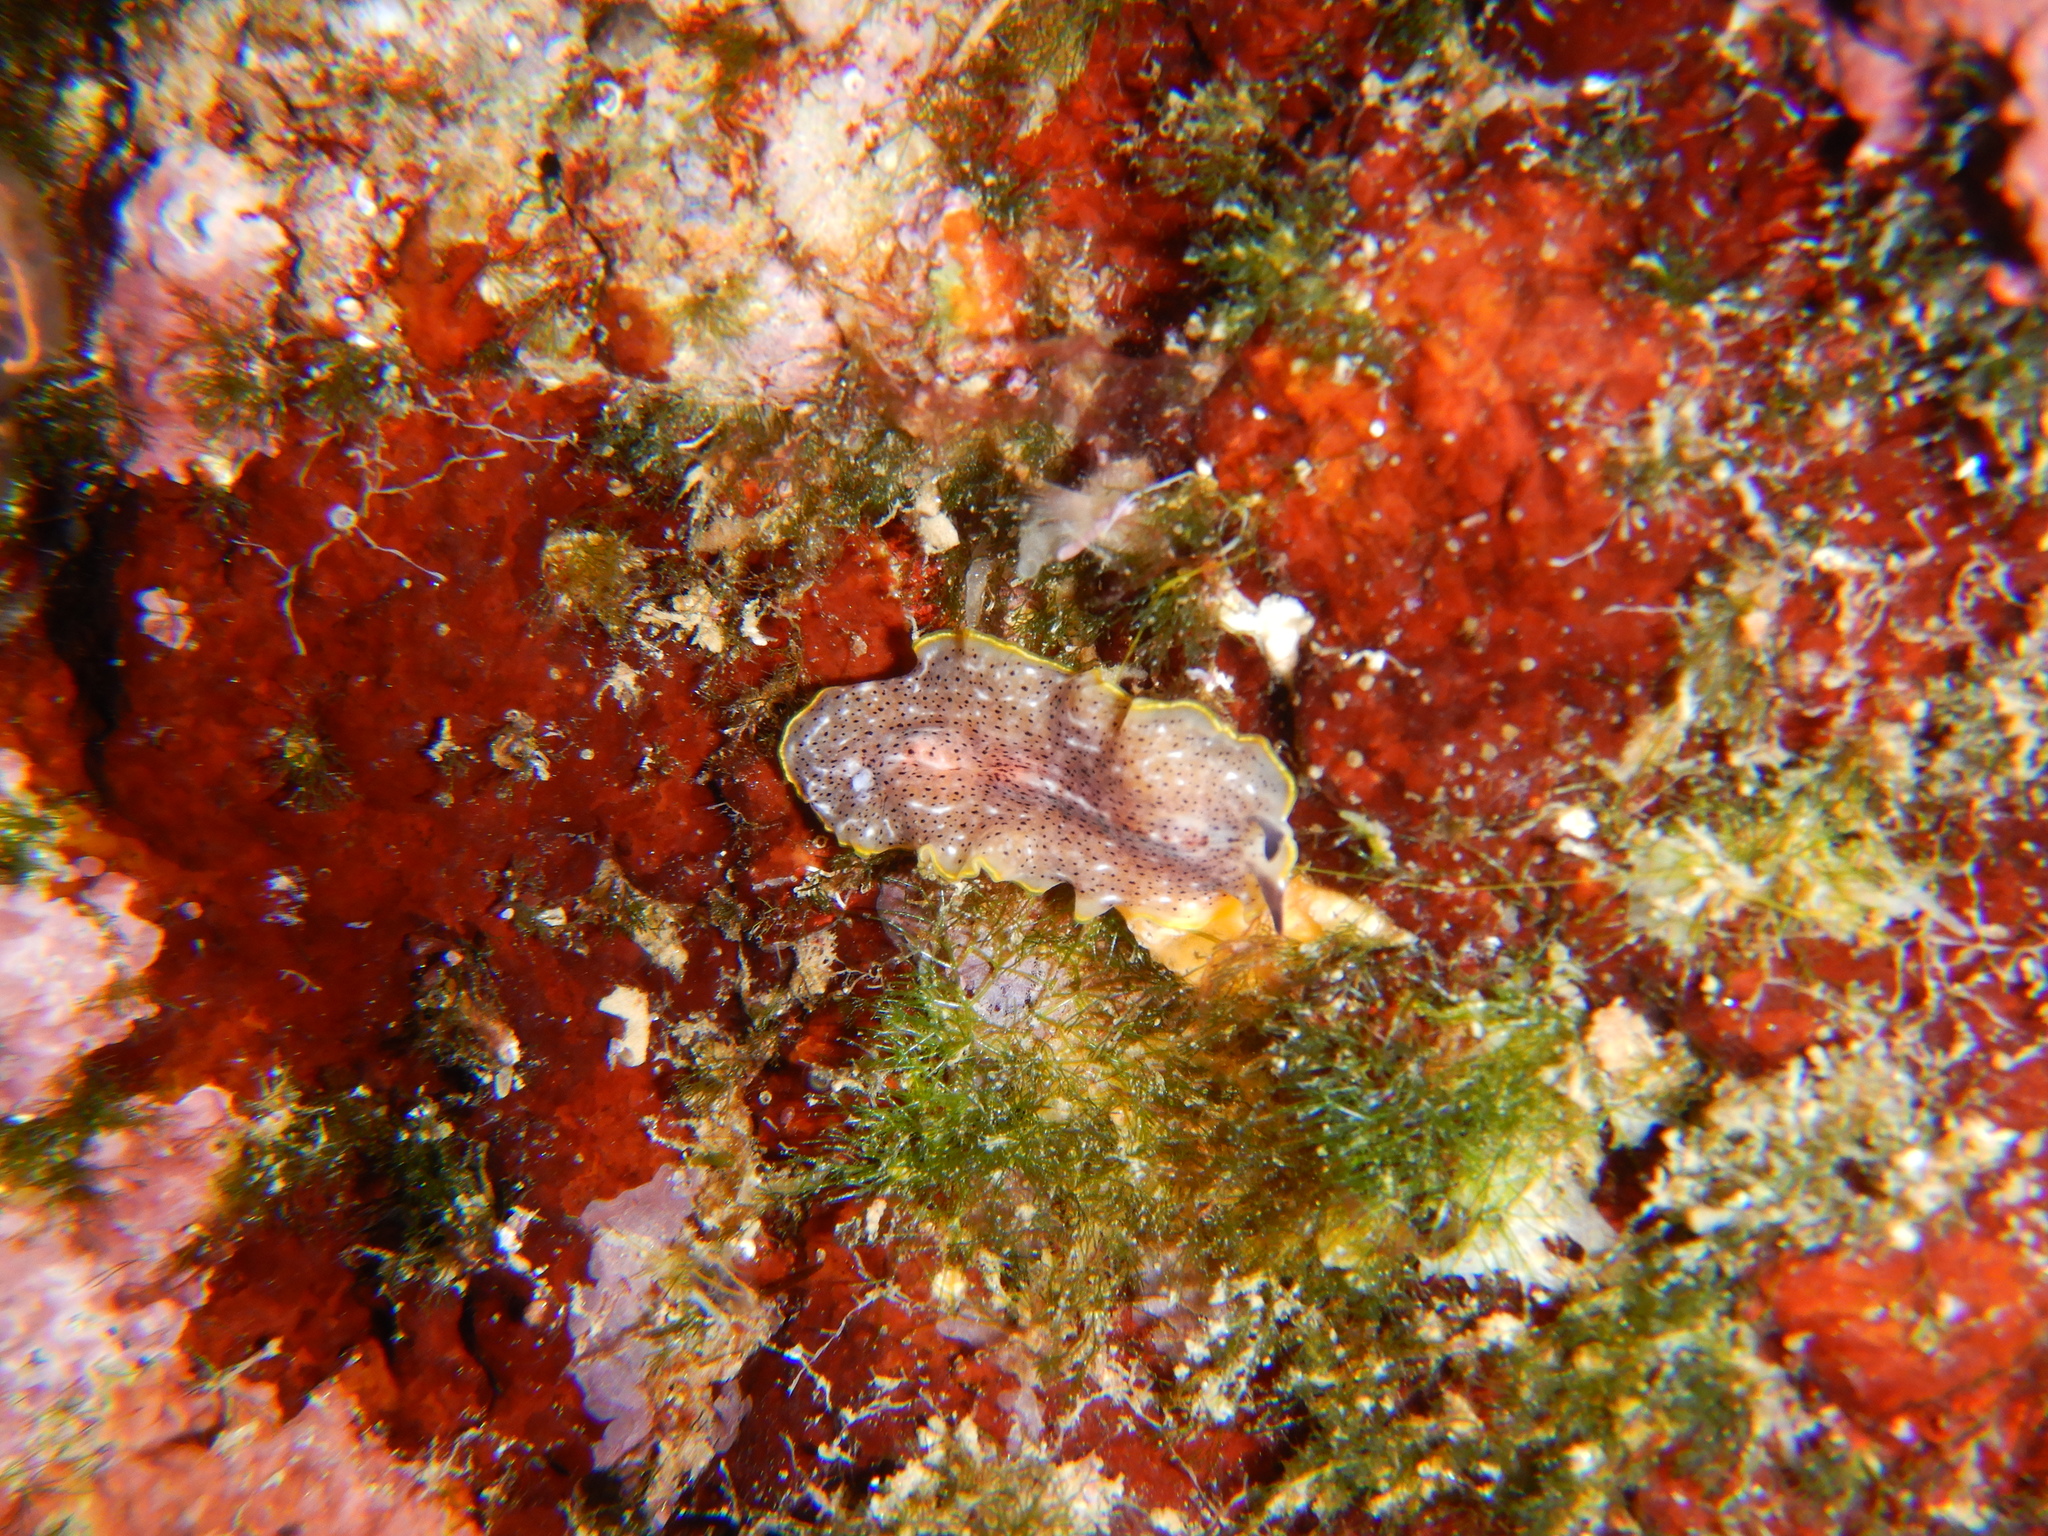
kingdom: Animalia
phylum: Platyhelminthes
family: Euryleptidae
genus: Prostheceraeus
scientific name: Prostheceraeus moseleyi
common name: Moseley's flatworm
